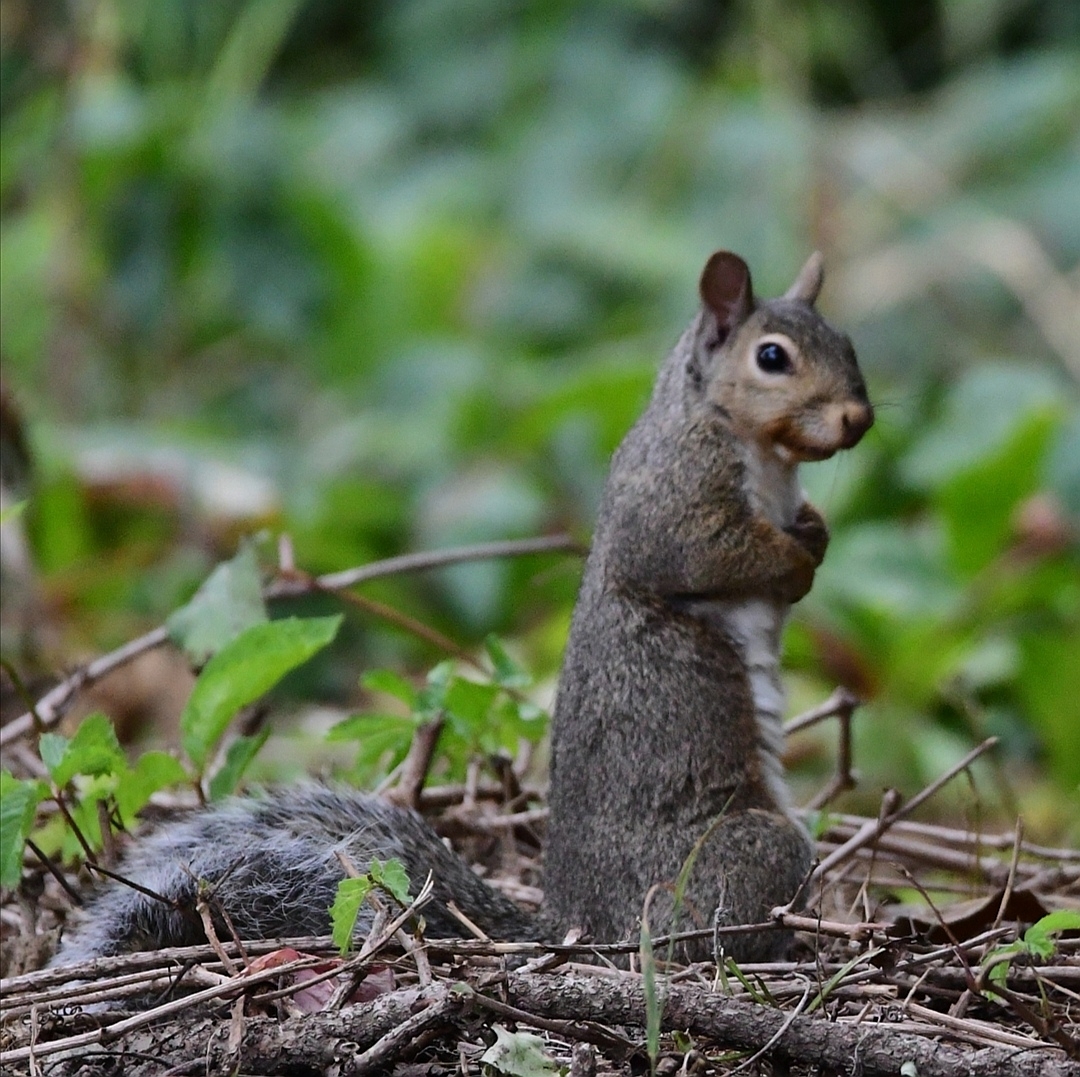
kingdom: Animalia
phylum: Chordata
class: Mammalia
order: Rodentia
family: Sciuridae
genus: Sciurus
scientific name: Sciurus carolinensis
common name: Eastern gray squirrel
